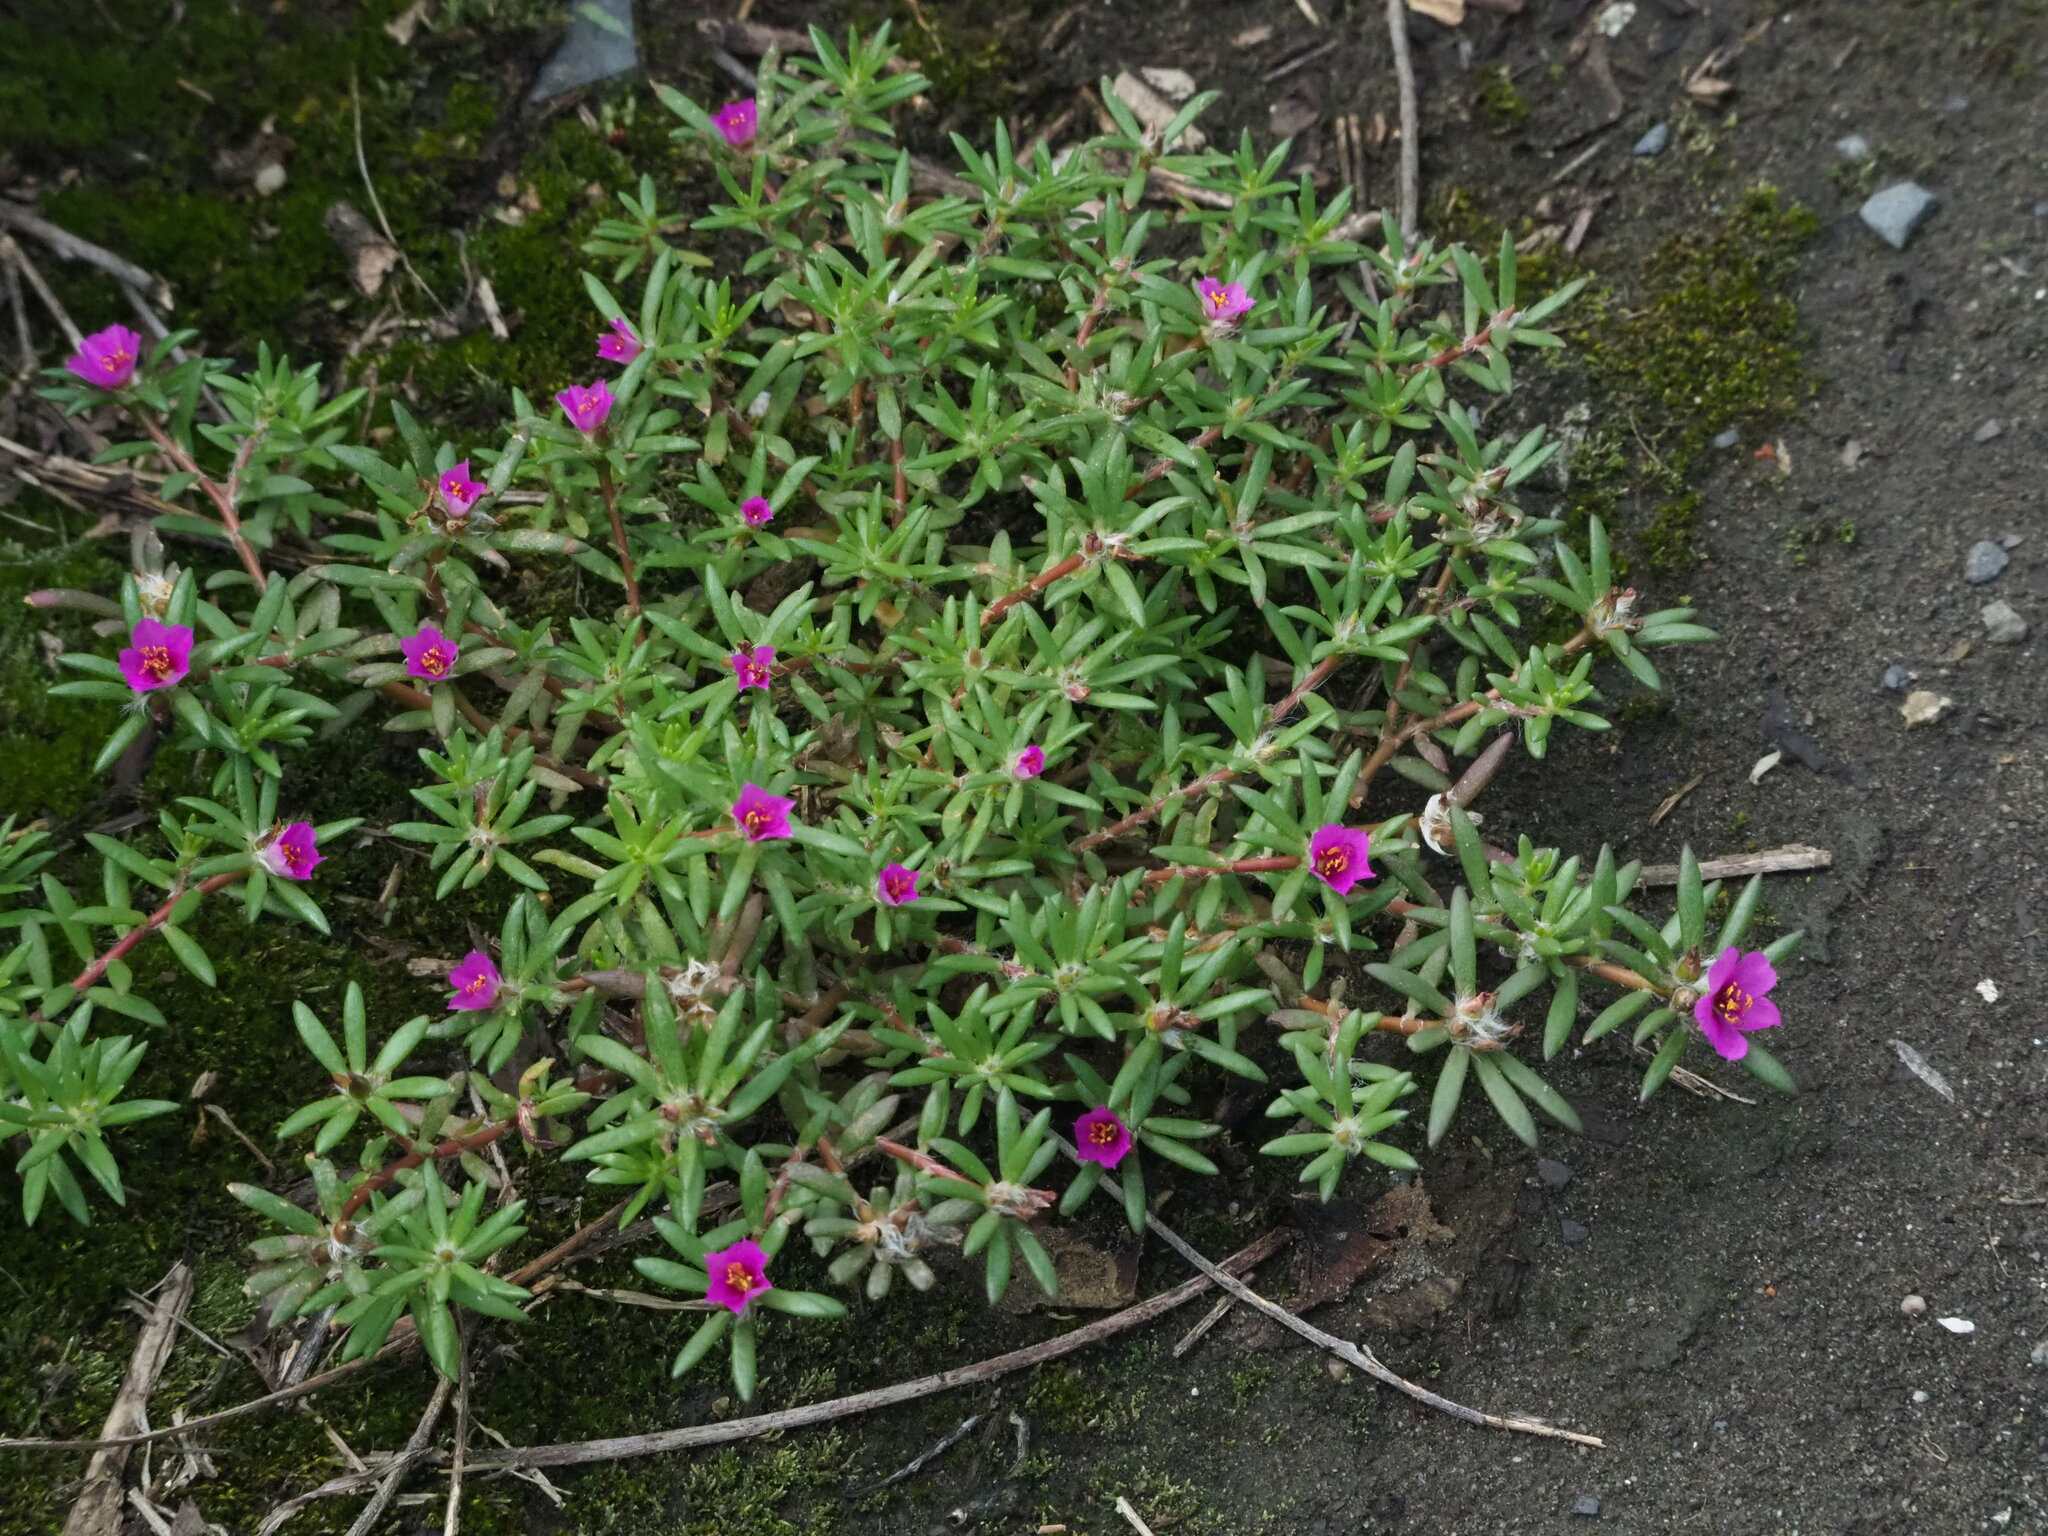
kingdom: Plantae
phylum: Tracheophyta
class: Magnoliopsida
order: Caryophyllales
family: Portulacaceae
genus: Portulaca
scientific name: Portulaca pilosa
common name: Kiss me quick
